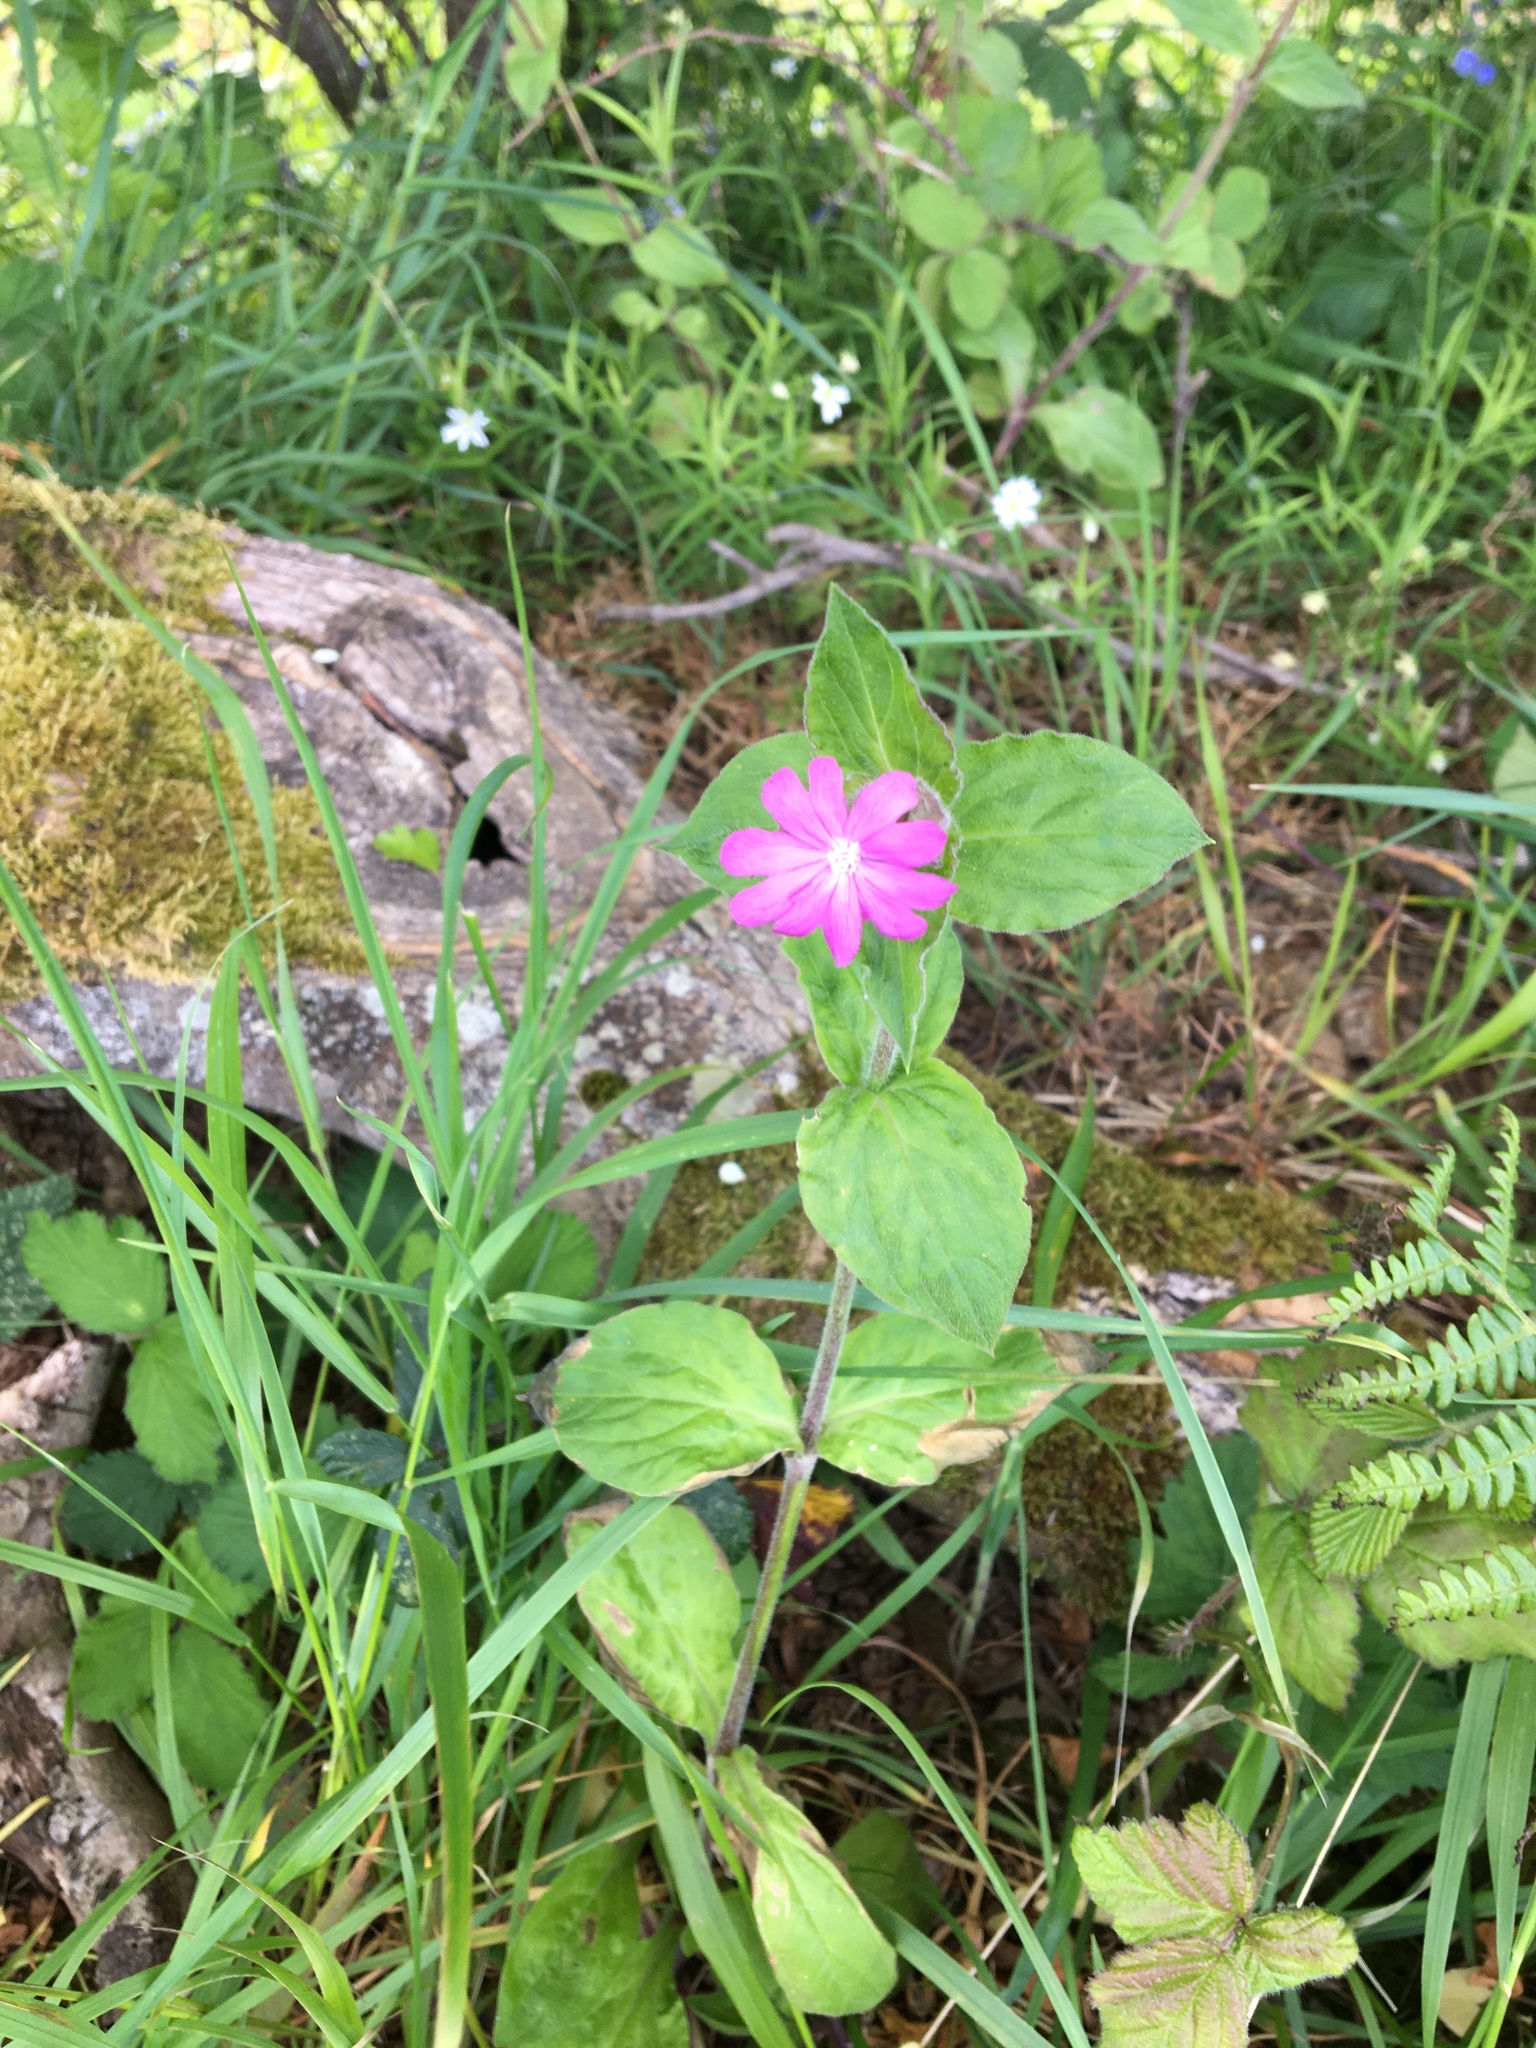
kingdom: Plantae
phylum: Tracheophyta
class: Magnoliopsida
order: Caryophyllales
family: Caryophyllaceae
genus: Silene
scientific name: Silene dioica
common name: Red campion
